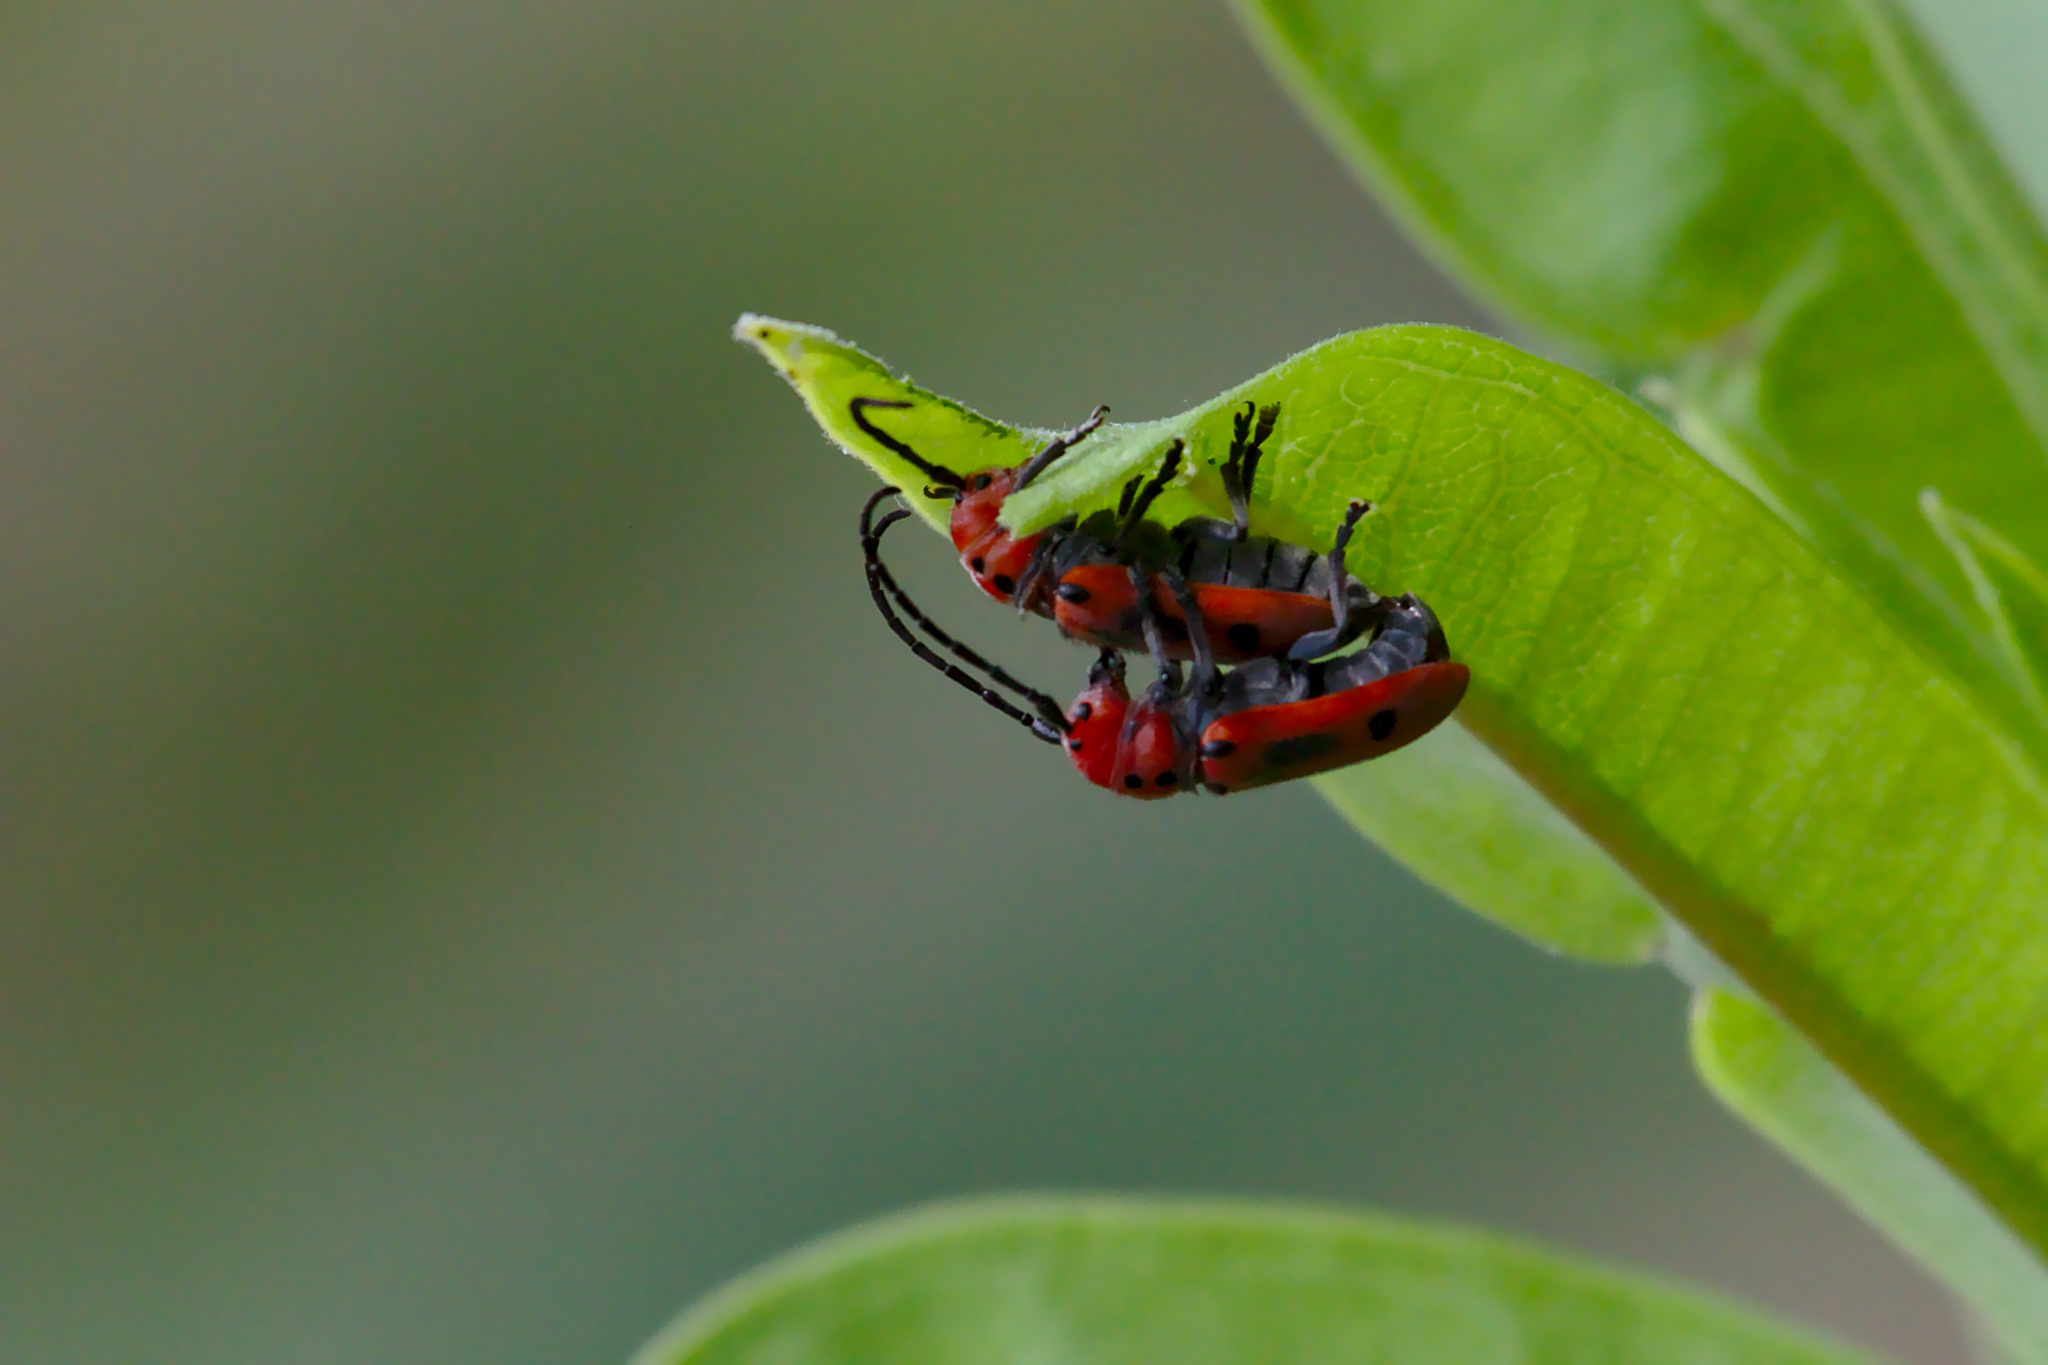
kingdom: Animalia
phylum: Arthropoda
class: Insecta
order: Coleoptera
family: Cerambycidae
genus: Tetraopes
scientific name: Tetraopes tetrophthalmus
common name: Red milkweed beetle
